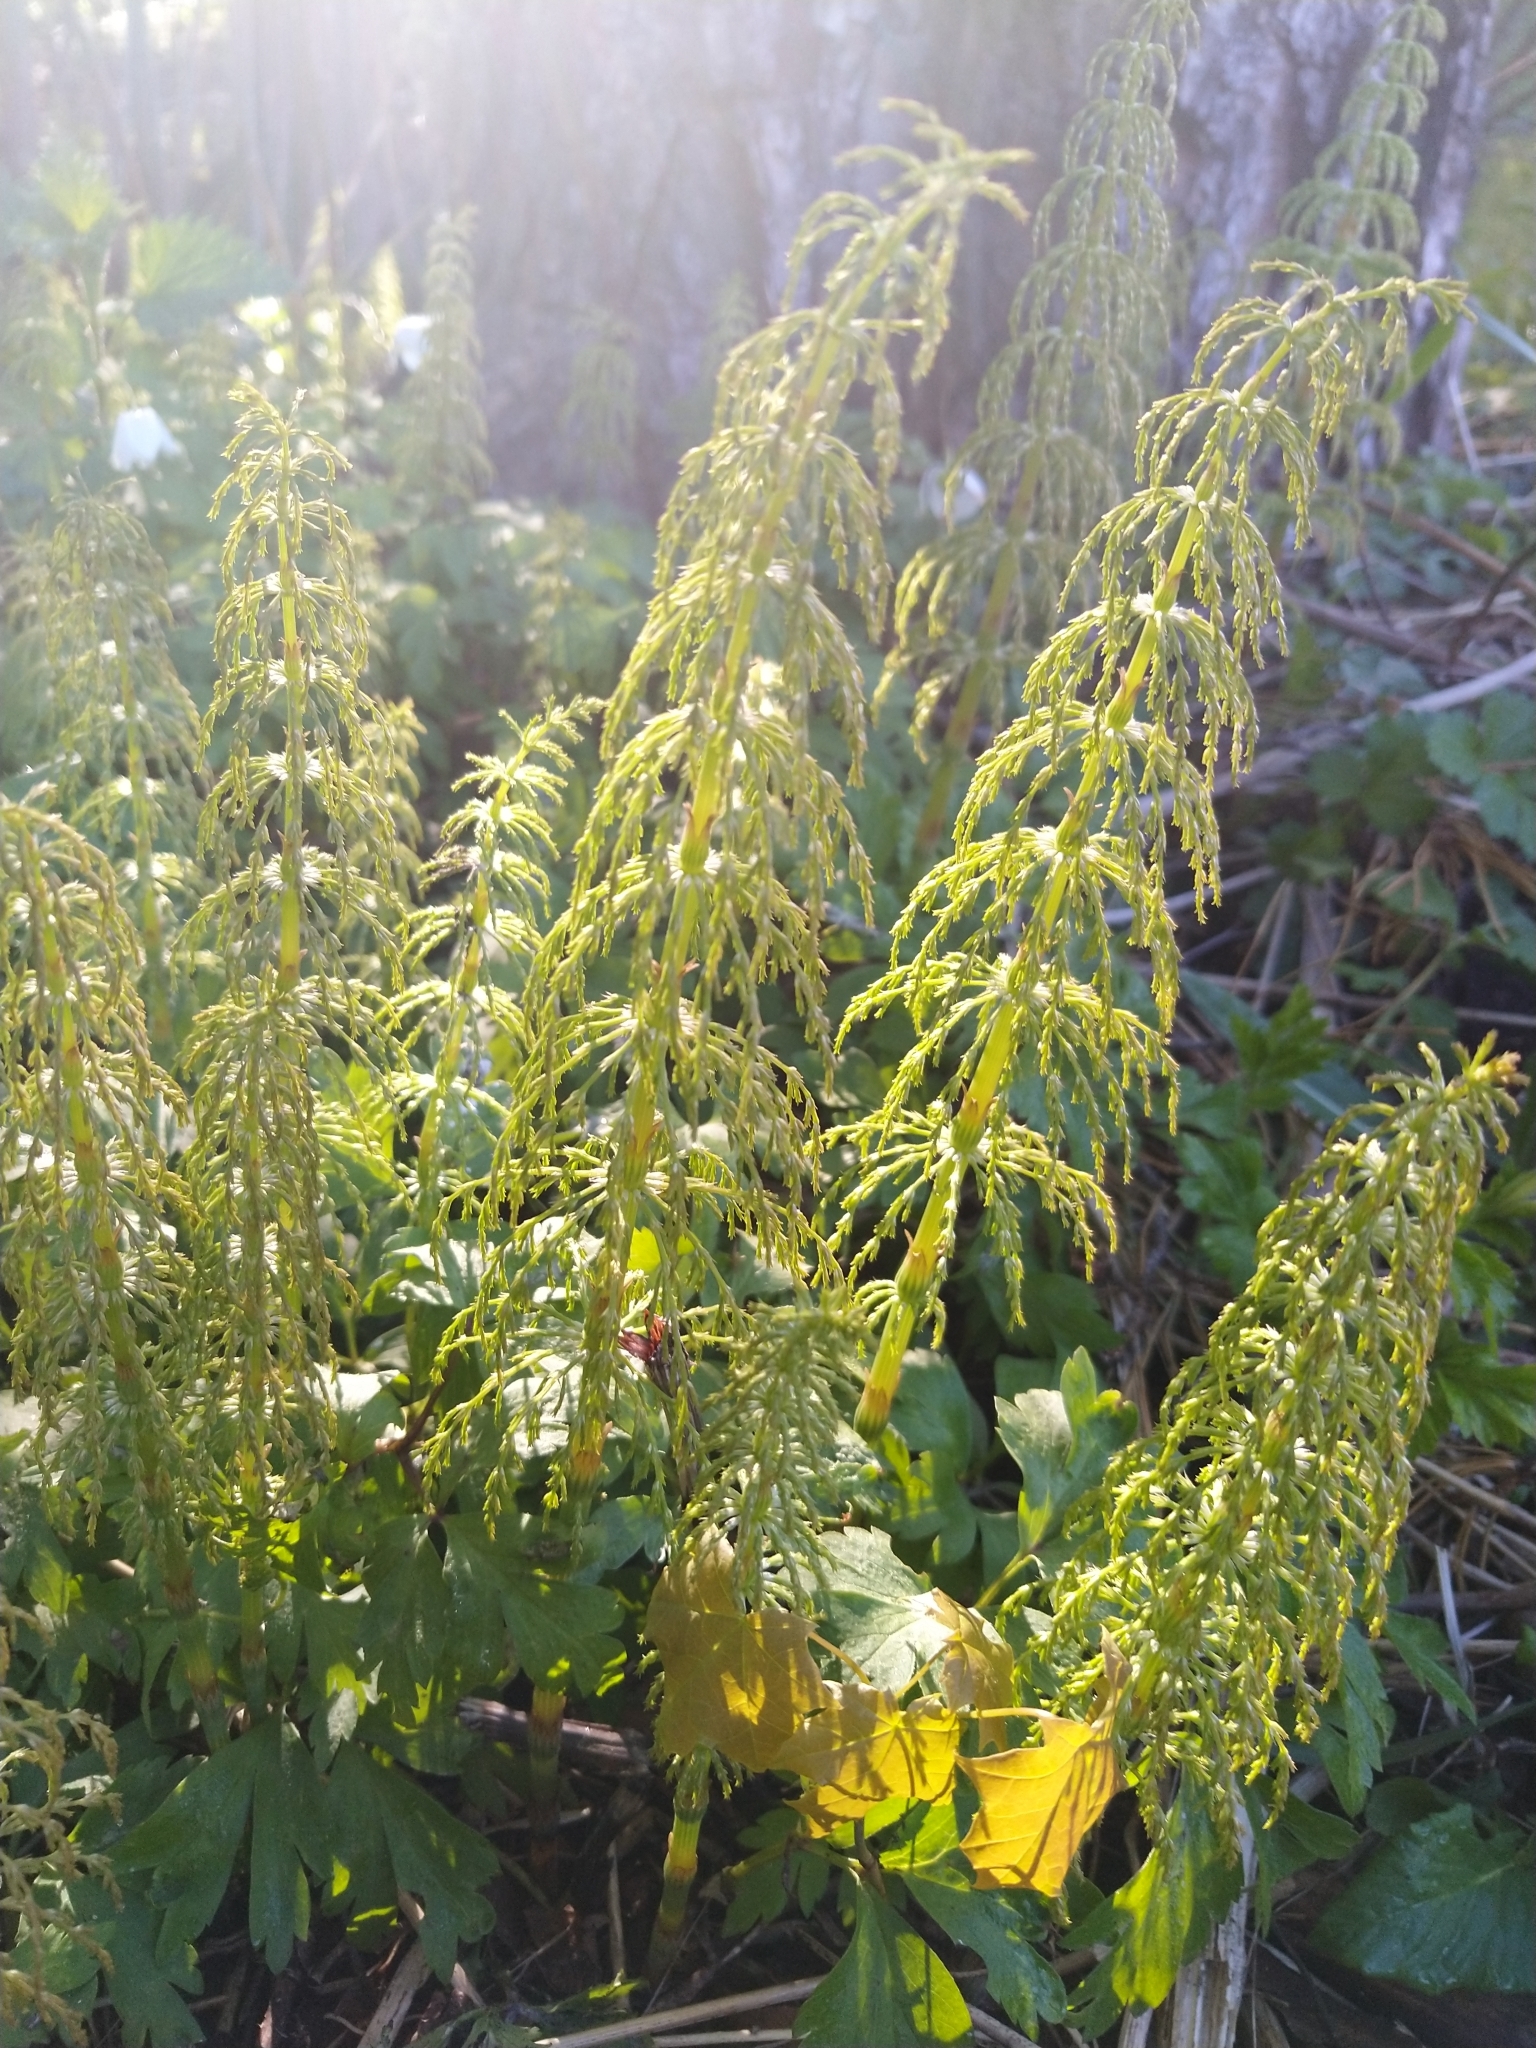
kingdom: Plantae
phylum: Tracheophyta
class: Polypodiopsida
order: Equisetales
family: Equisetaceae
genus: Equisetum
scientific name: Equisetum sylvaticum
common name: Wood horsetail
